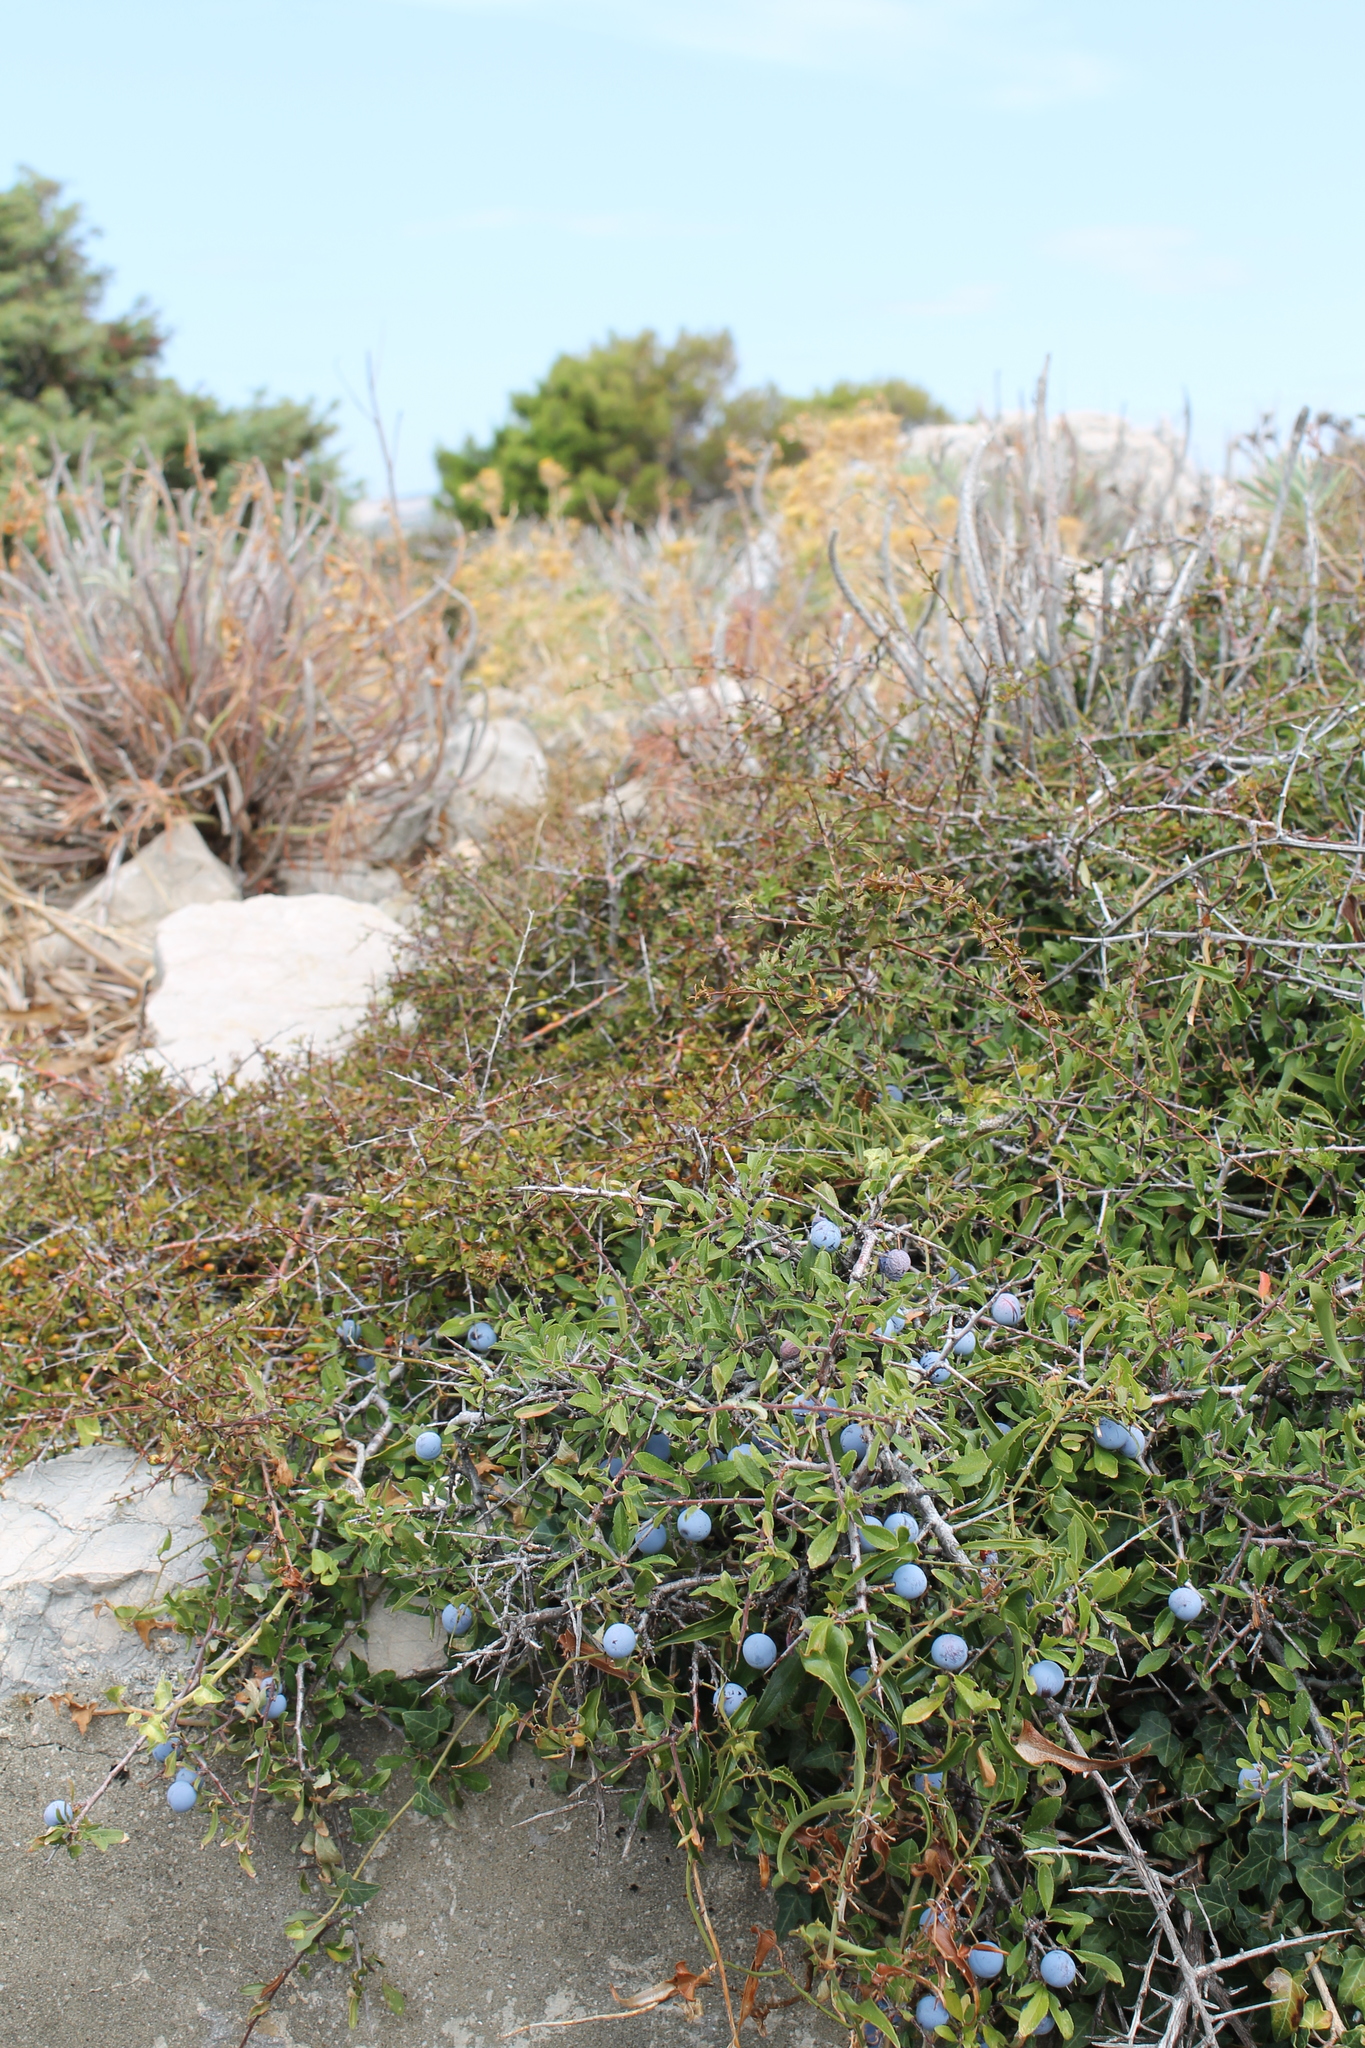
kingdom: Plantae
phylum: Tracheophyta
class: Magnoliopsida
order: Rosales
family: Rosaceae
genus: Prunus
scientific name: Prunus spinosa
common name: Blackthorn
